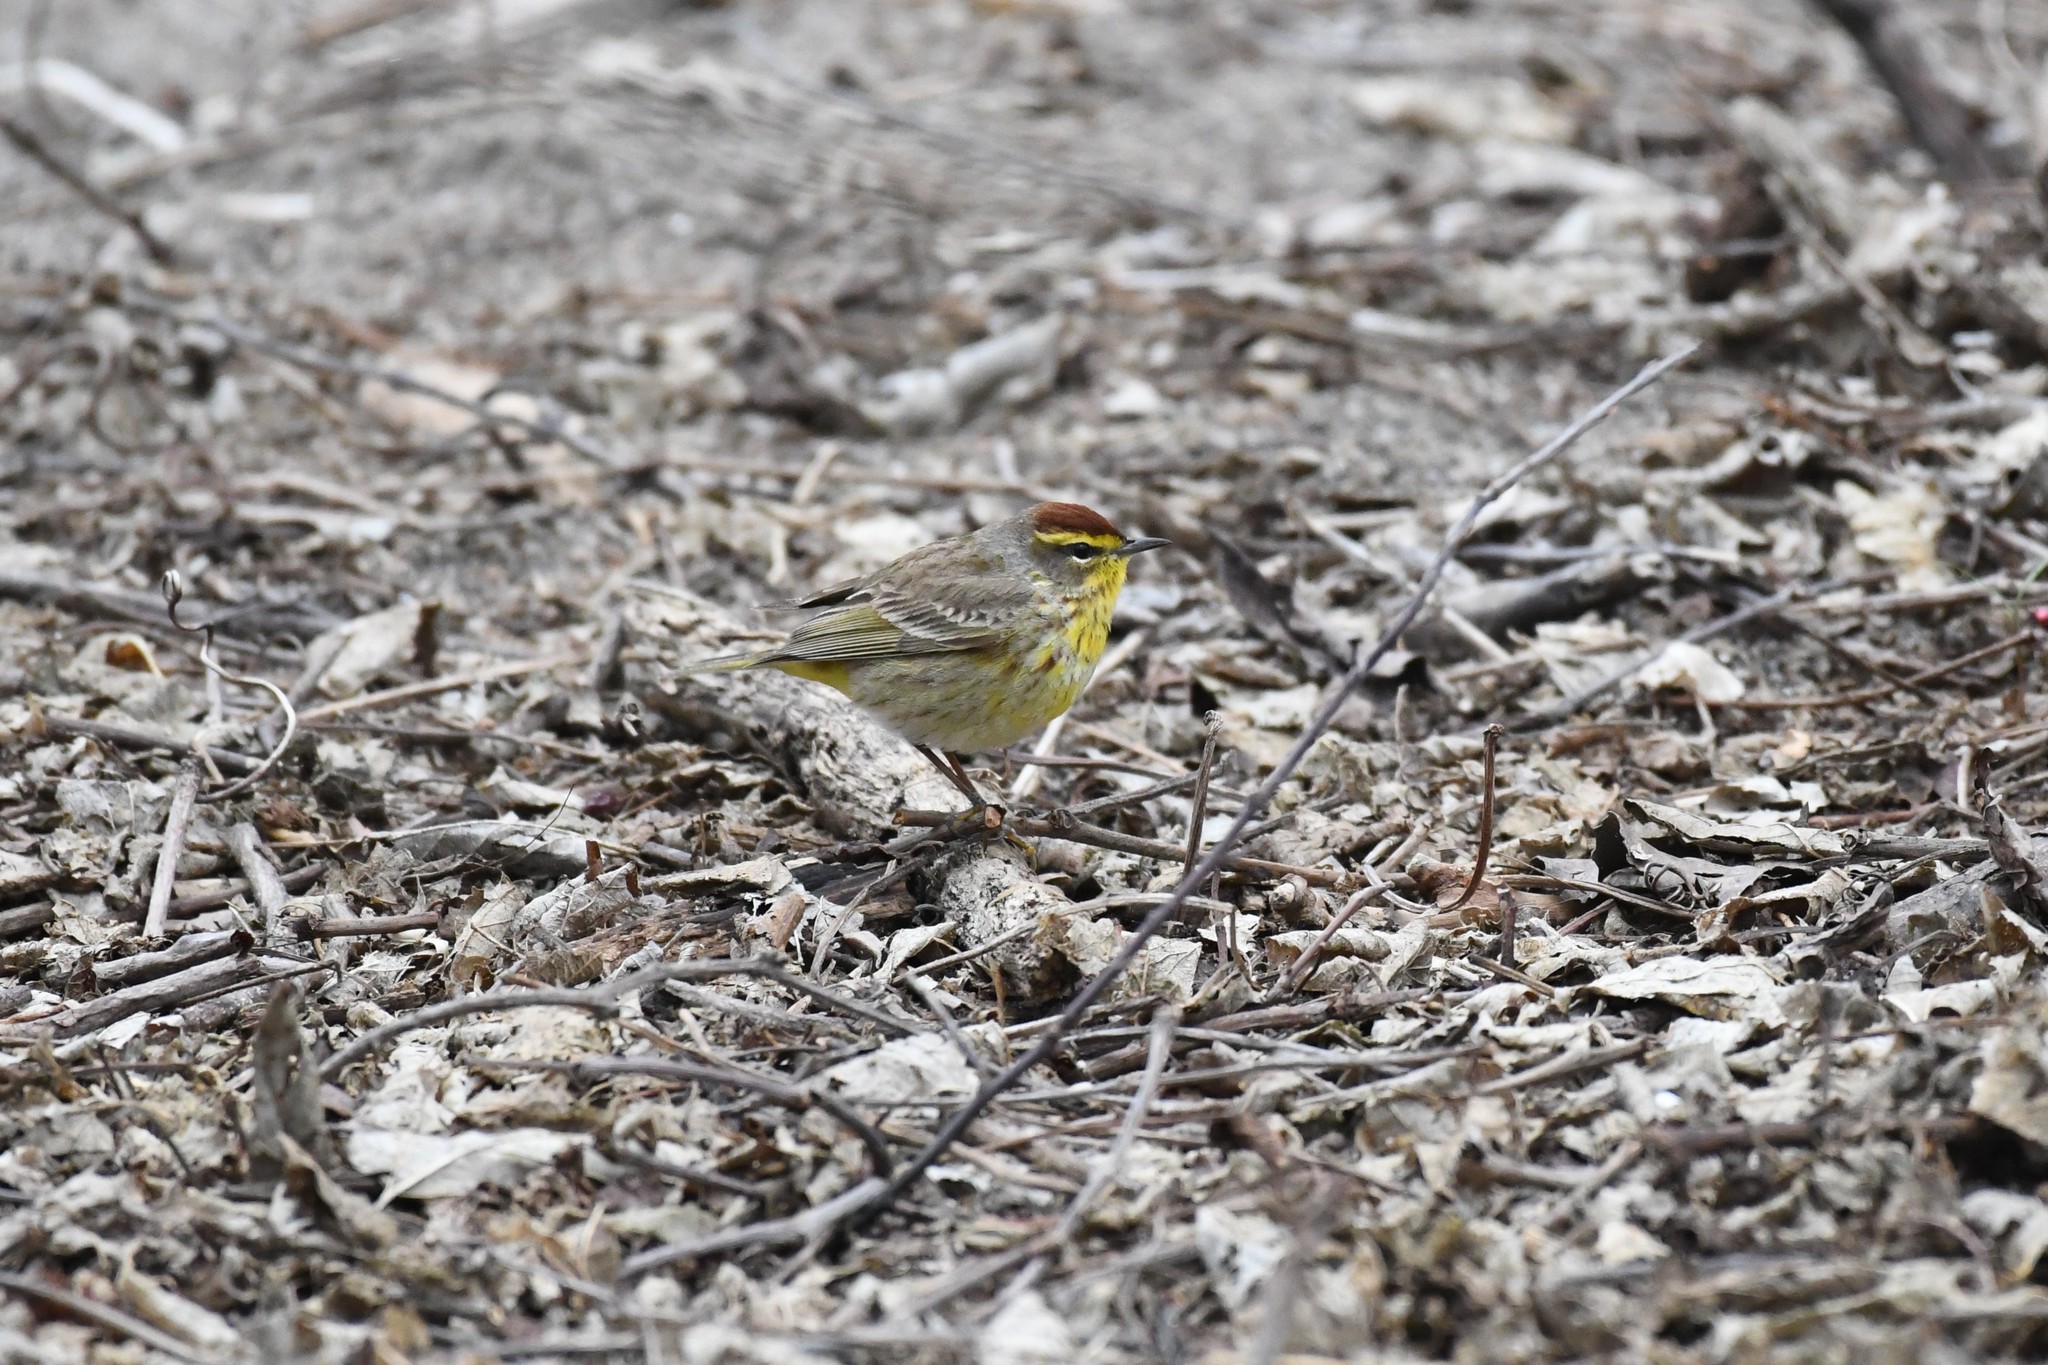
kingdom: Animalia
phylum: Chordata
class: Aves
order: Passeriformes
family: Parulidae
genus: Setophaga
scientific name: Setophaga palmarum
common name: Palm warbler
